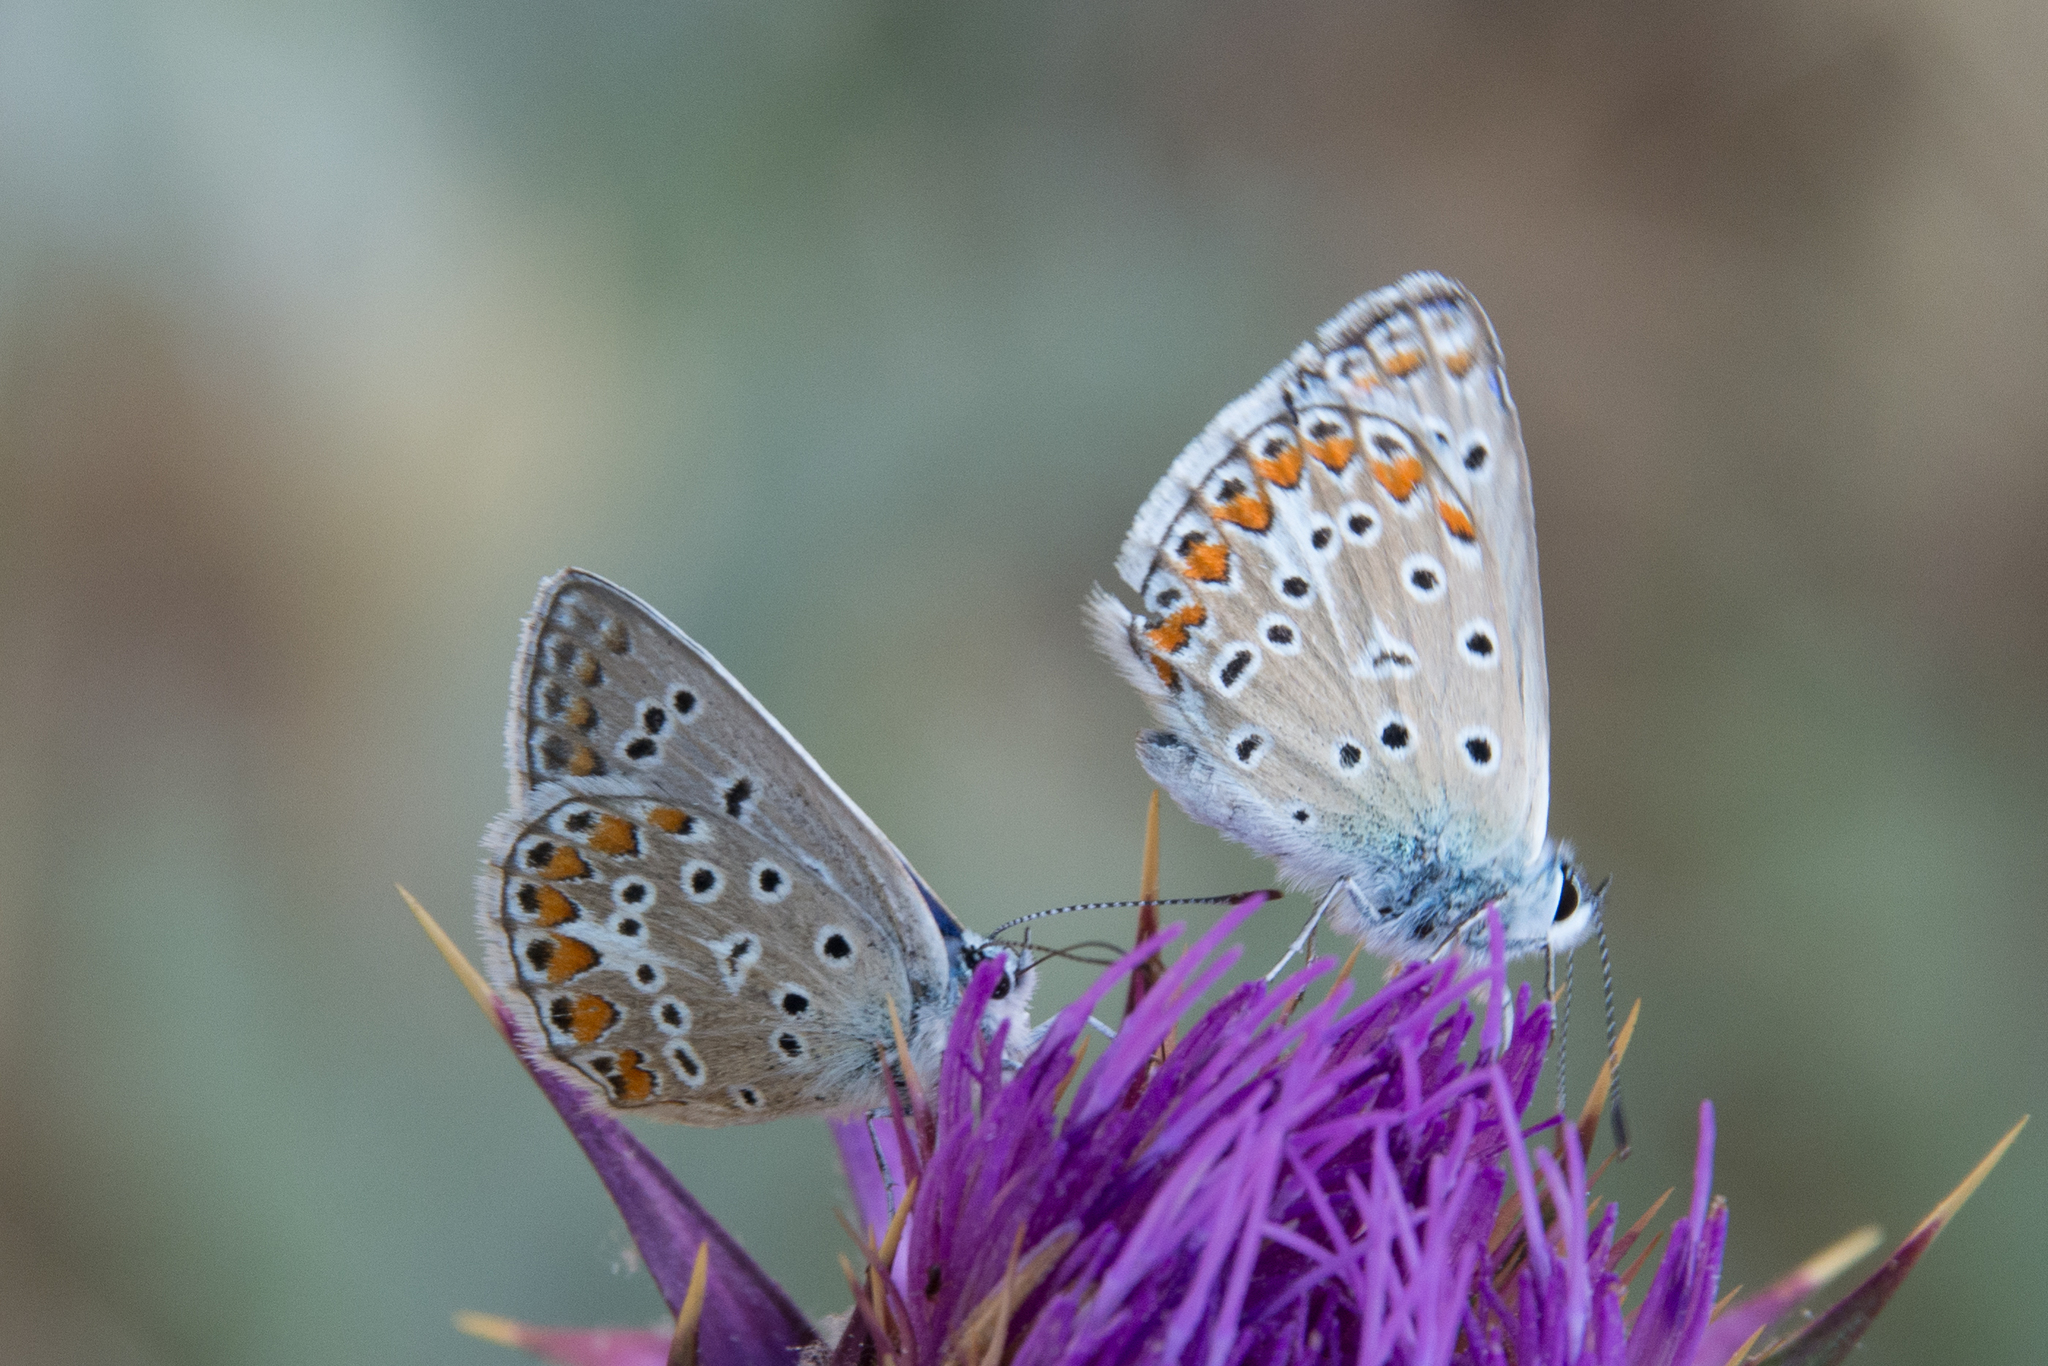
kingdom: Animalia
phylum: Arthropoda
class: Insecta
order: Lepidoptera
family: Lycaenidae
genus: Polyommatus
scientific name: Polyommatus celina
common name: Austaut's blue
